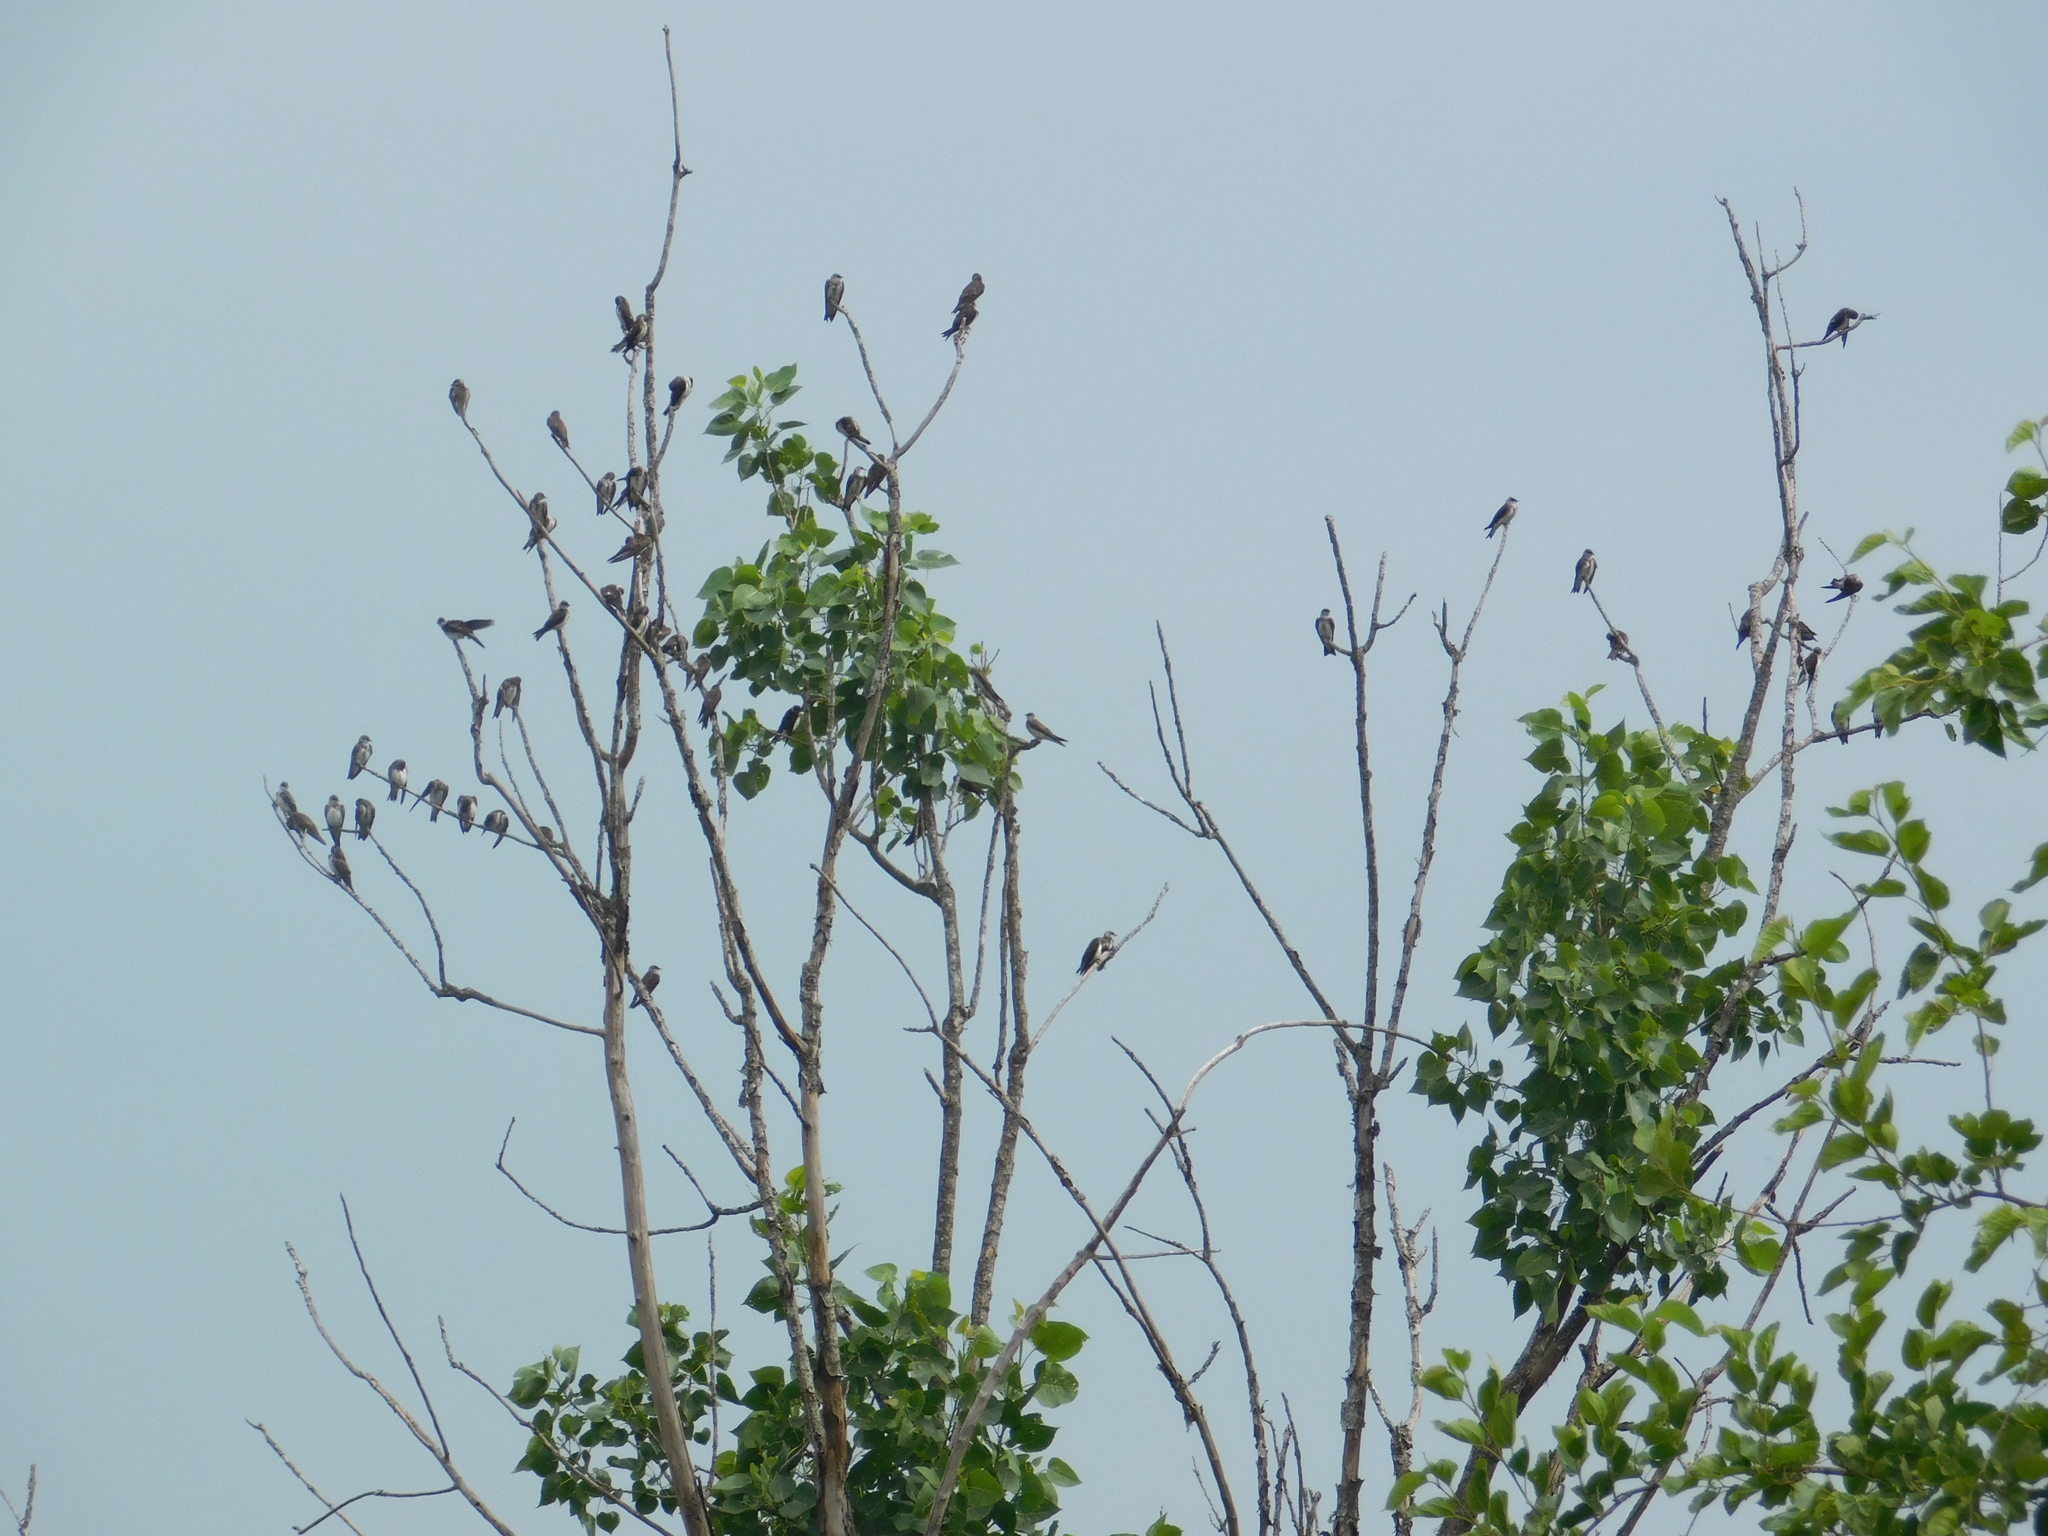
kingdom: Animalia
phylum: Chordata
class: Aves
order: Passeriformes
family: Hirundinidae
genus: Progne
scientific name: Progne tapera
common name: Brown-chested martin
